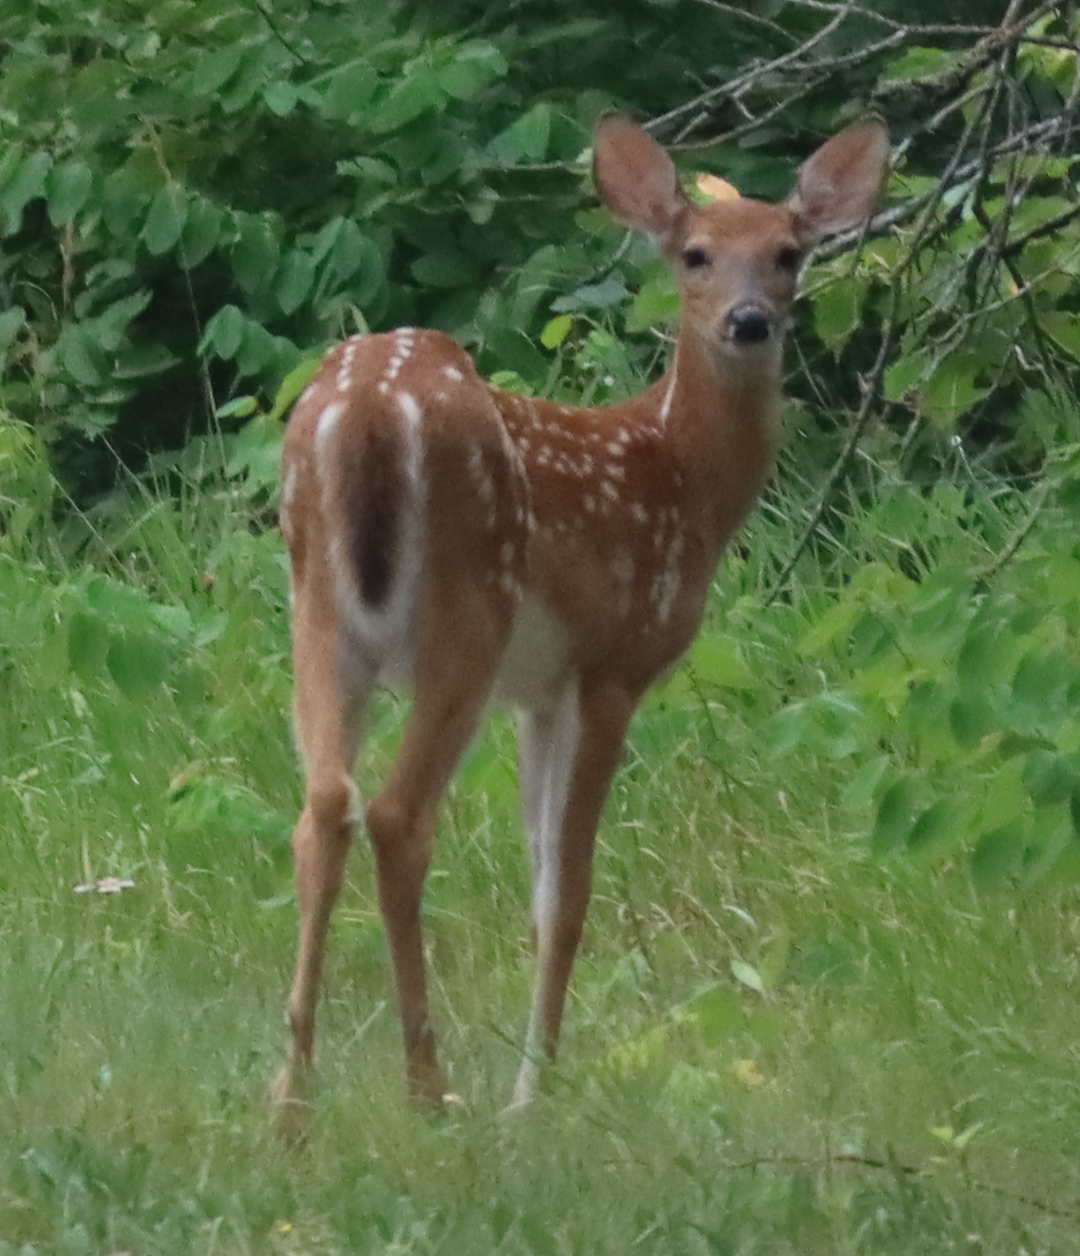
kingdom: Animalia
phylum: Chordata
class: Mammalia
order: Artiodactyla
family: Cervidae
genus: Odocoileus
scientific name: Odocoileus virginianus
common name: White-tailed deer
